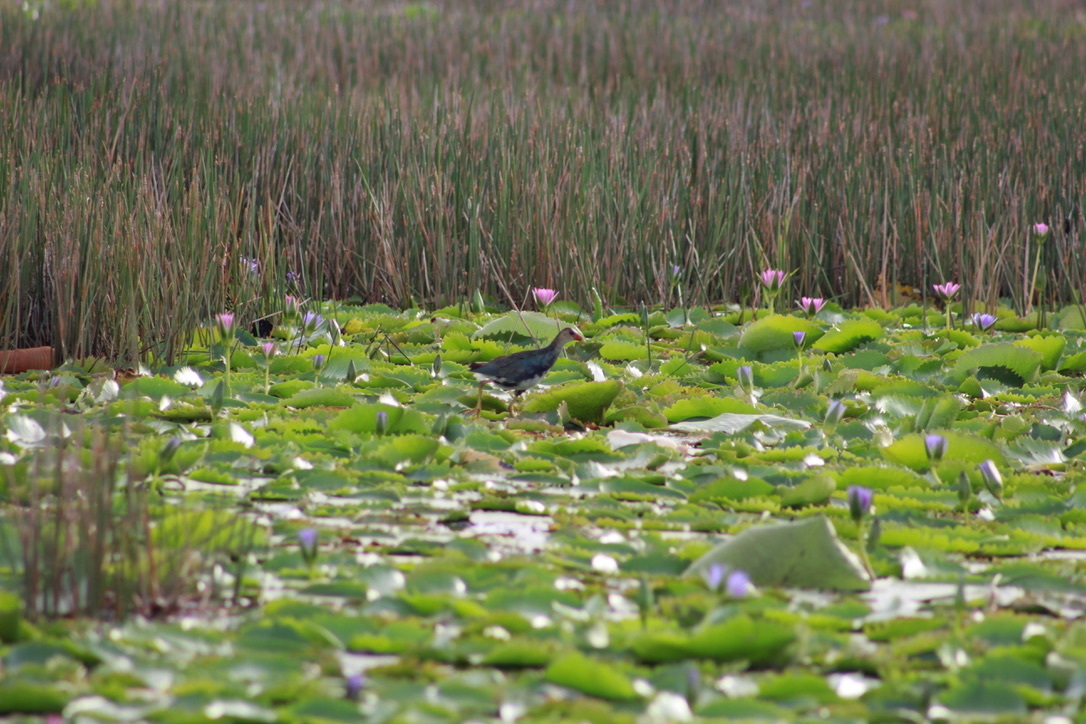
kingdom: Animalia
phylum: Chordata
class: Aves
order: Gruiformes
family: Rallidae
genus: Porphyrio
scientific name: Porphyrio martinica
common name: Purple gallinule
